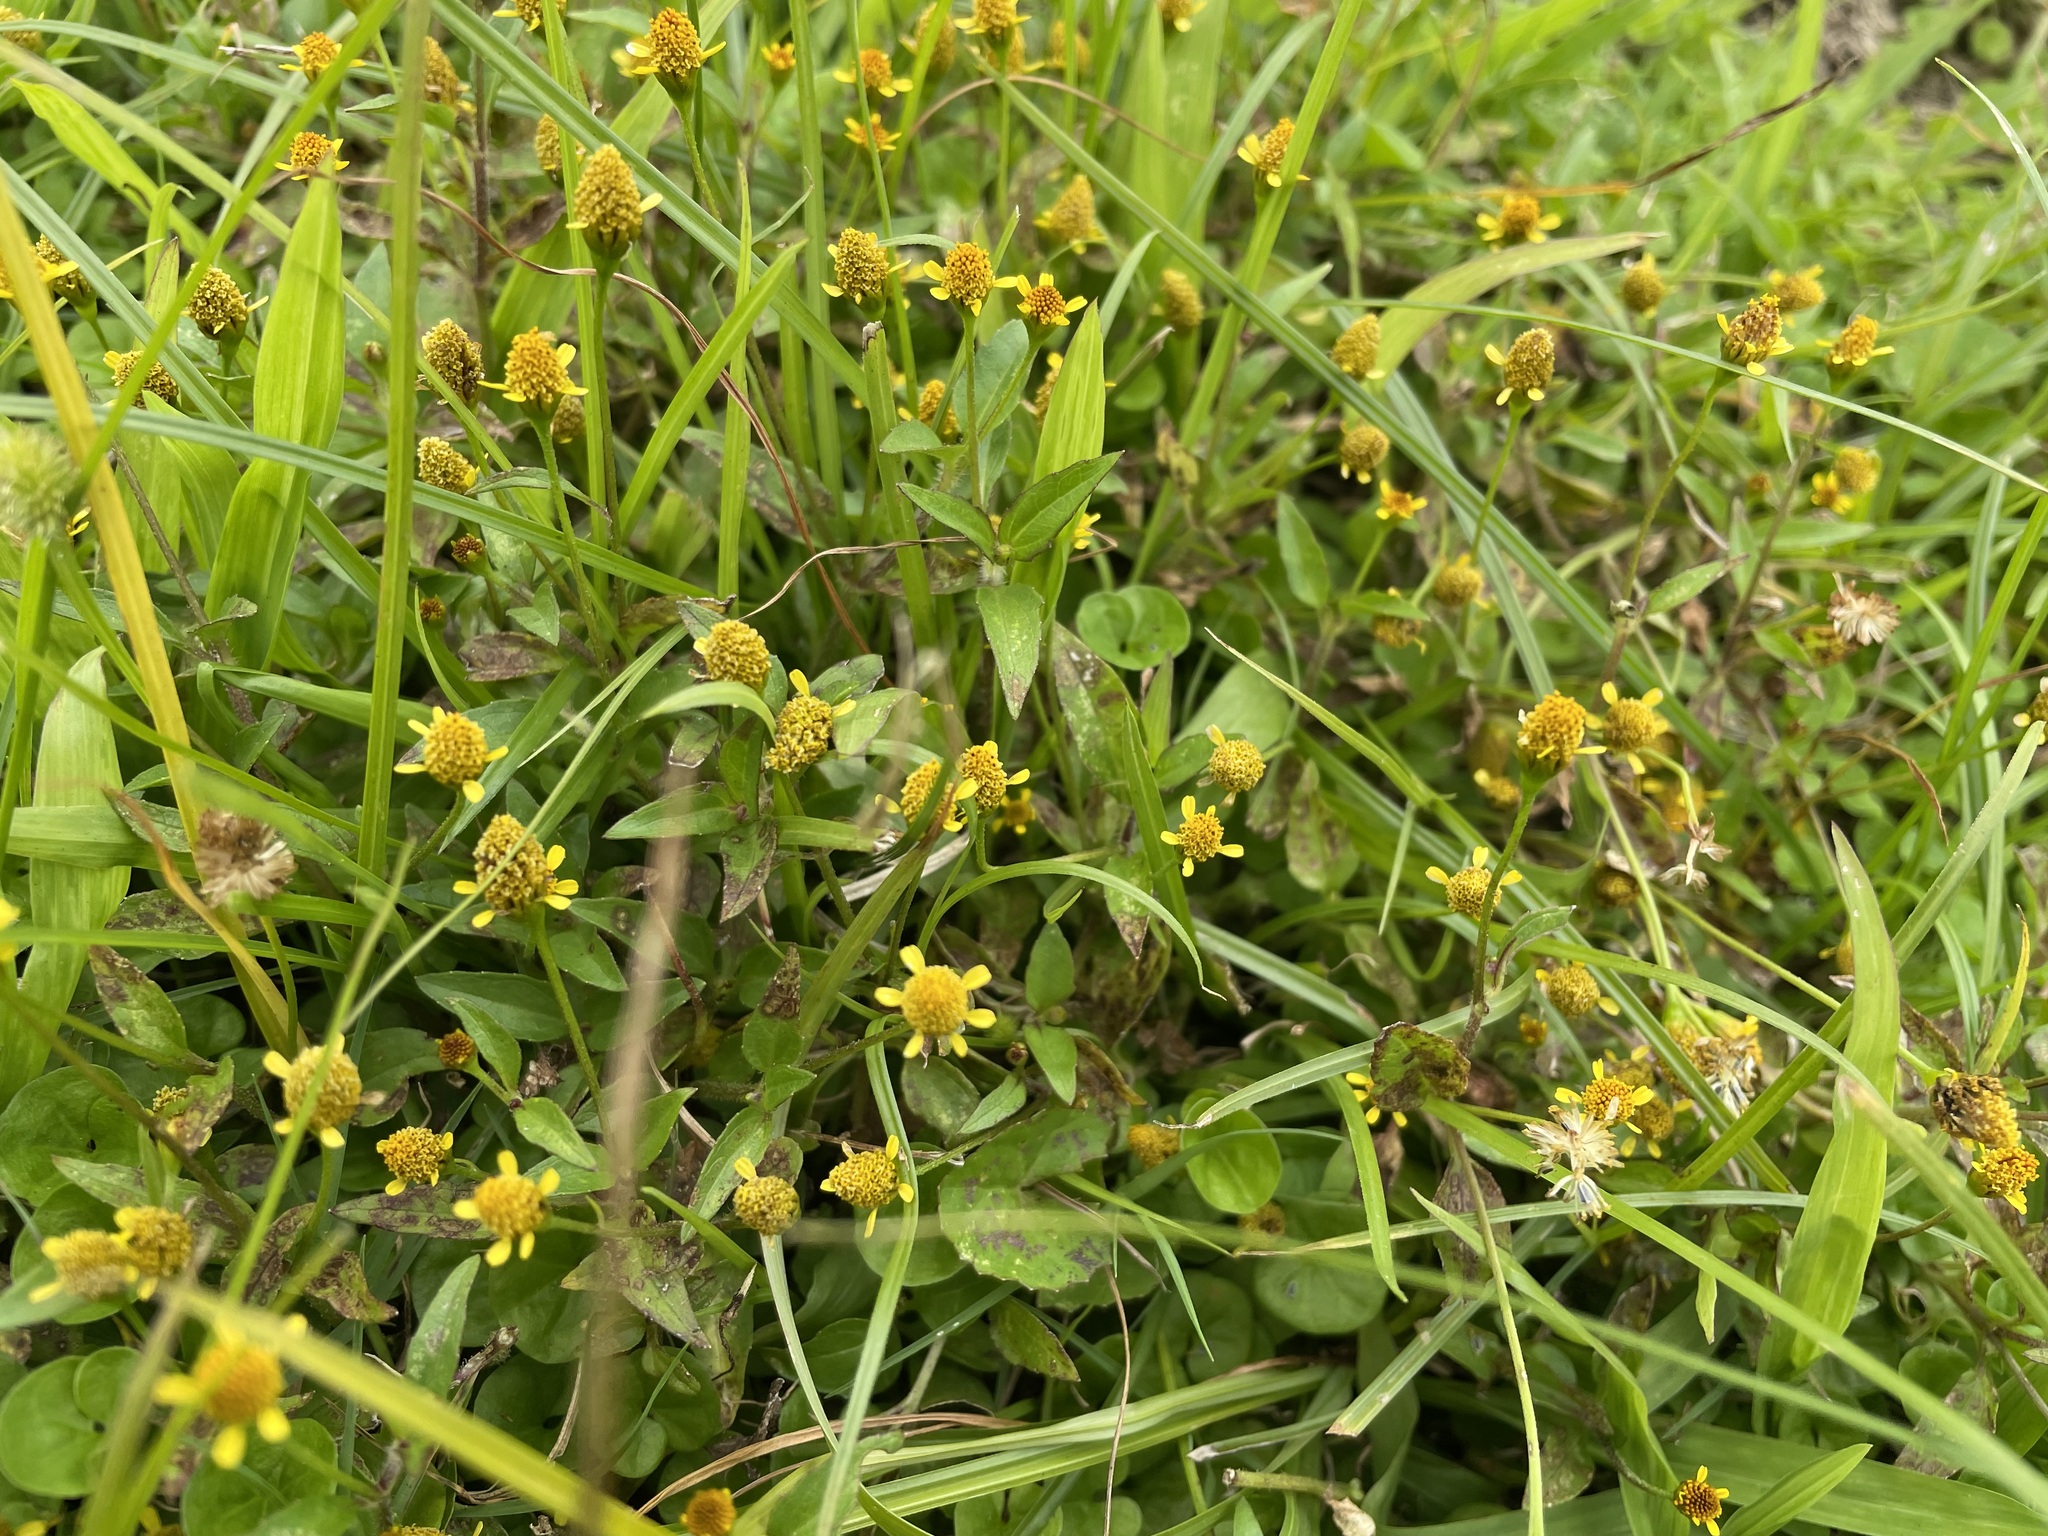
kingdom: Plantae
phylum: Tracheophyta
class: Magnoliopsida
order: Asterales
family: Asteraceae
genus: Acmella
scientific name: Acmella uliginosa
